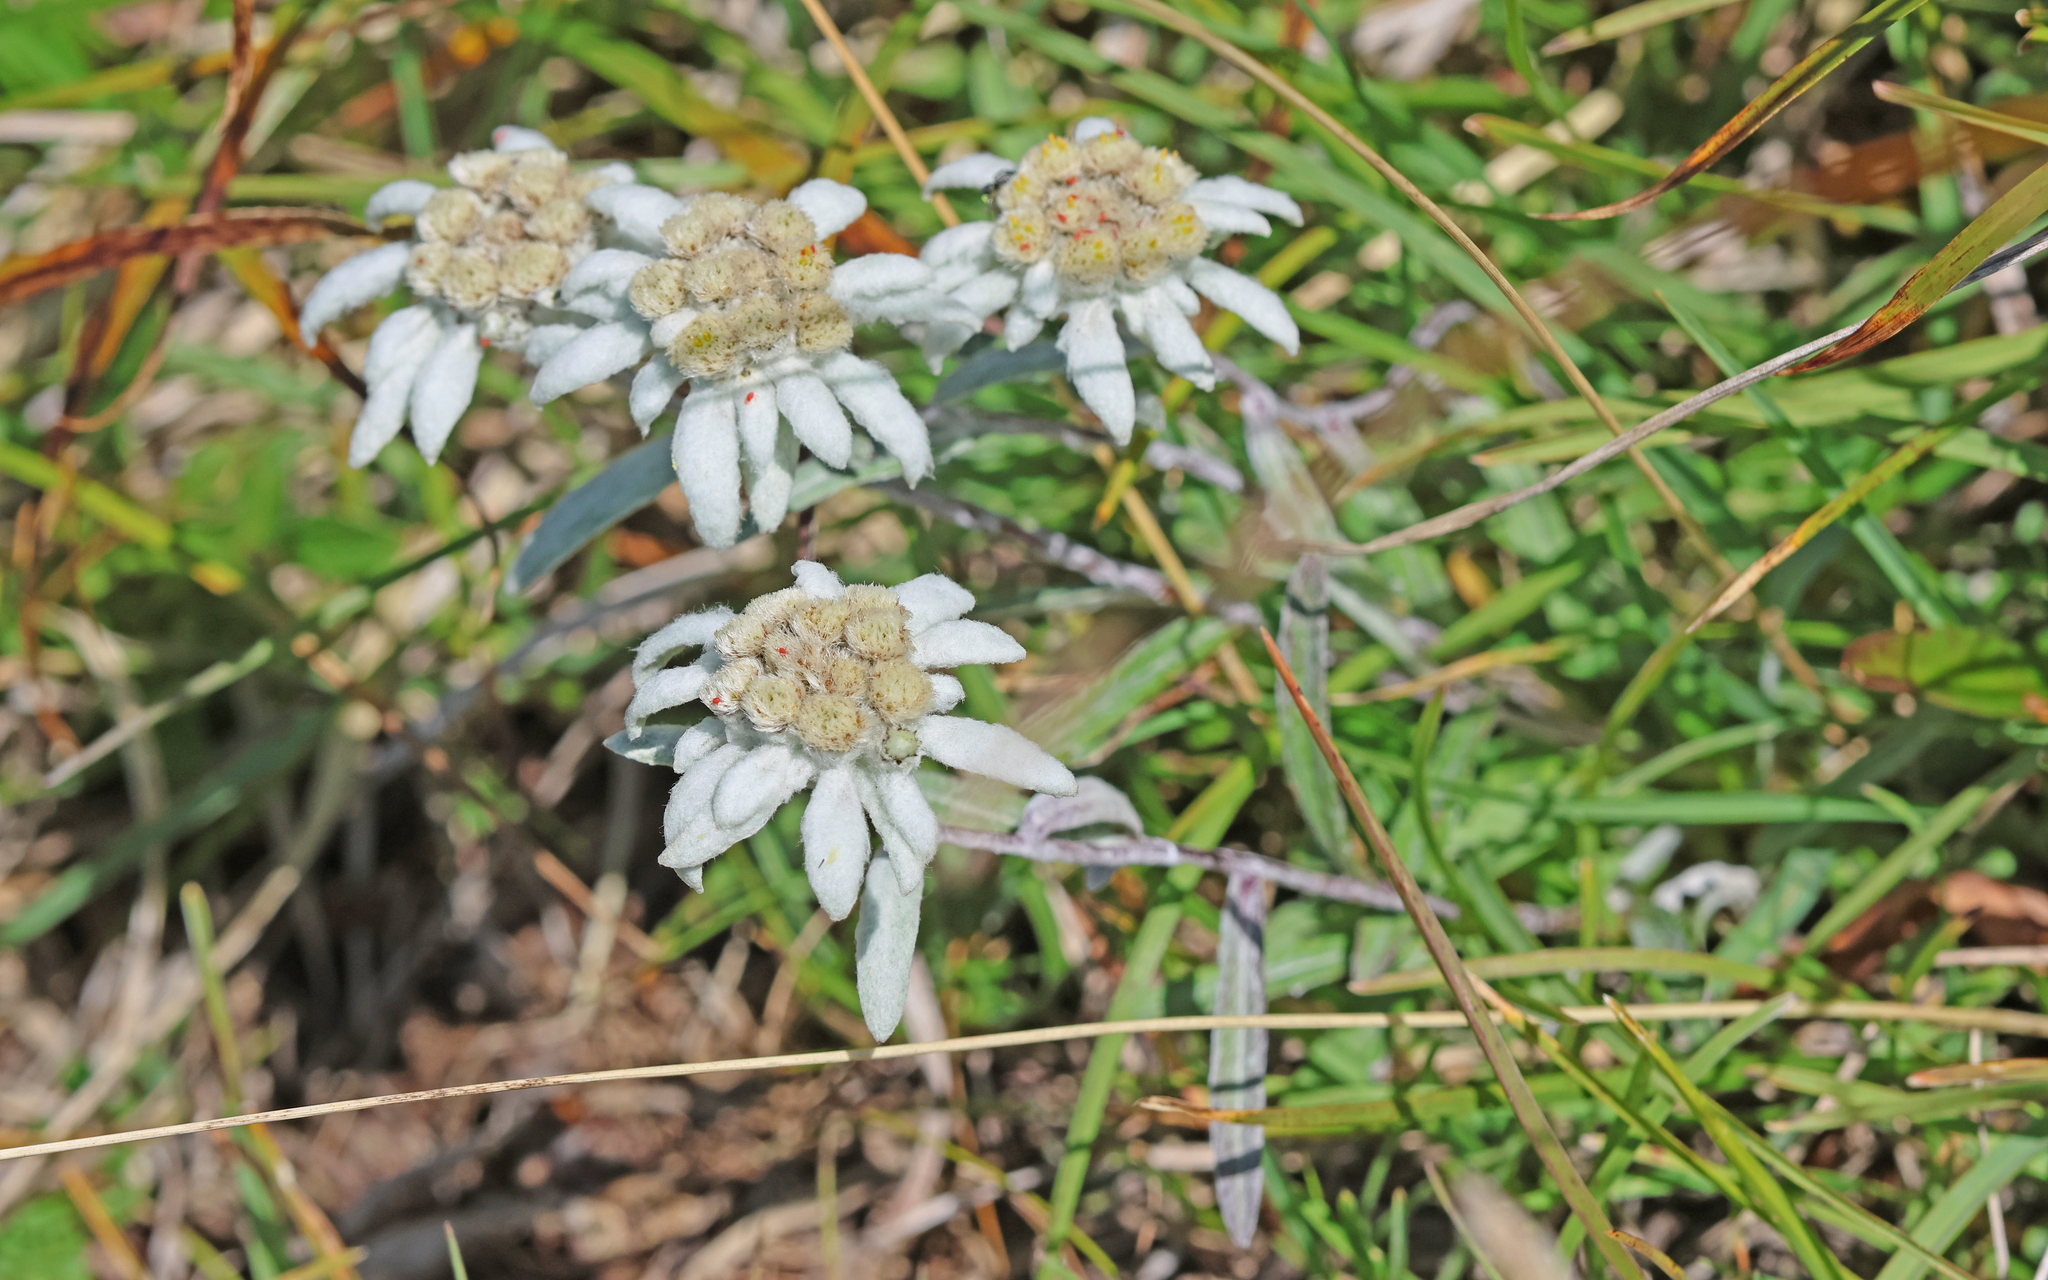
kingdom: Plantae
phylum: Tracheophyta
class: Magnoliopsida
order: Asterales
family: Asteraceae
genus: Leontopodium
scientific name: Leontopodium nivale
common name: Edelweiss
